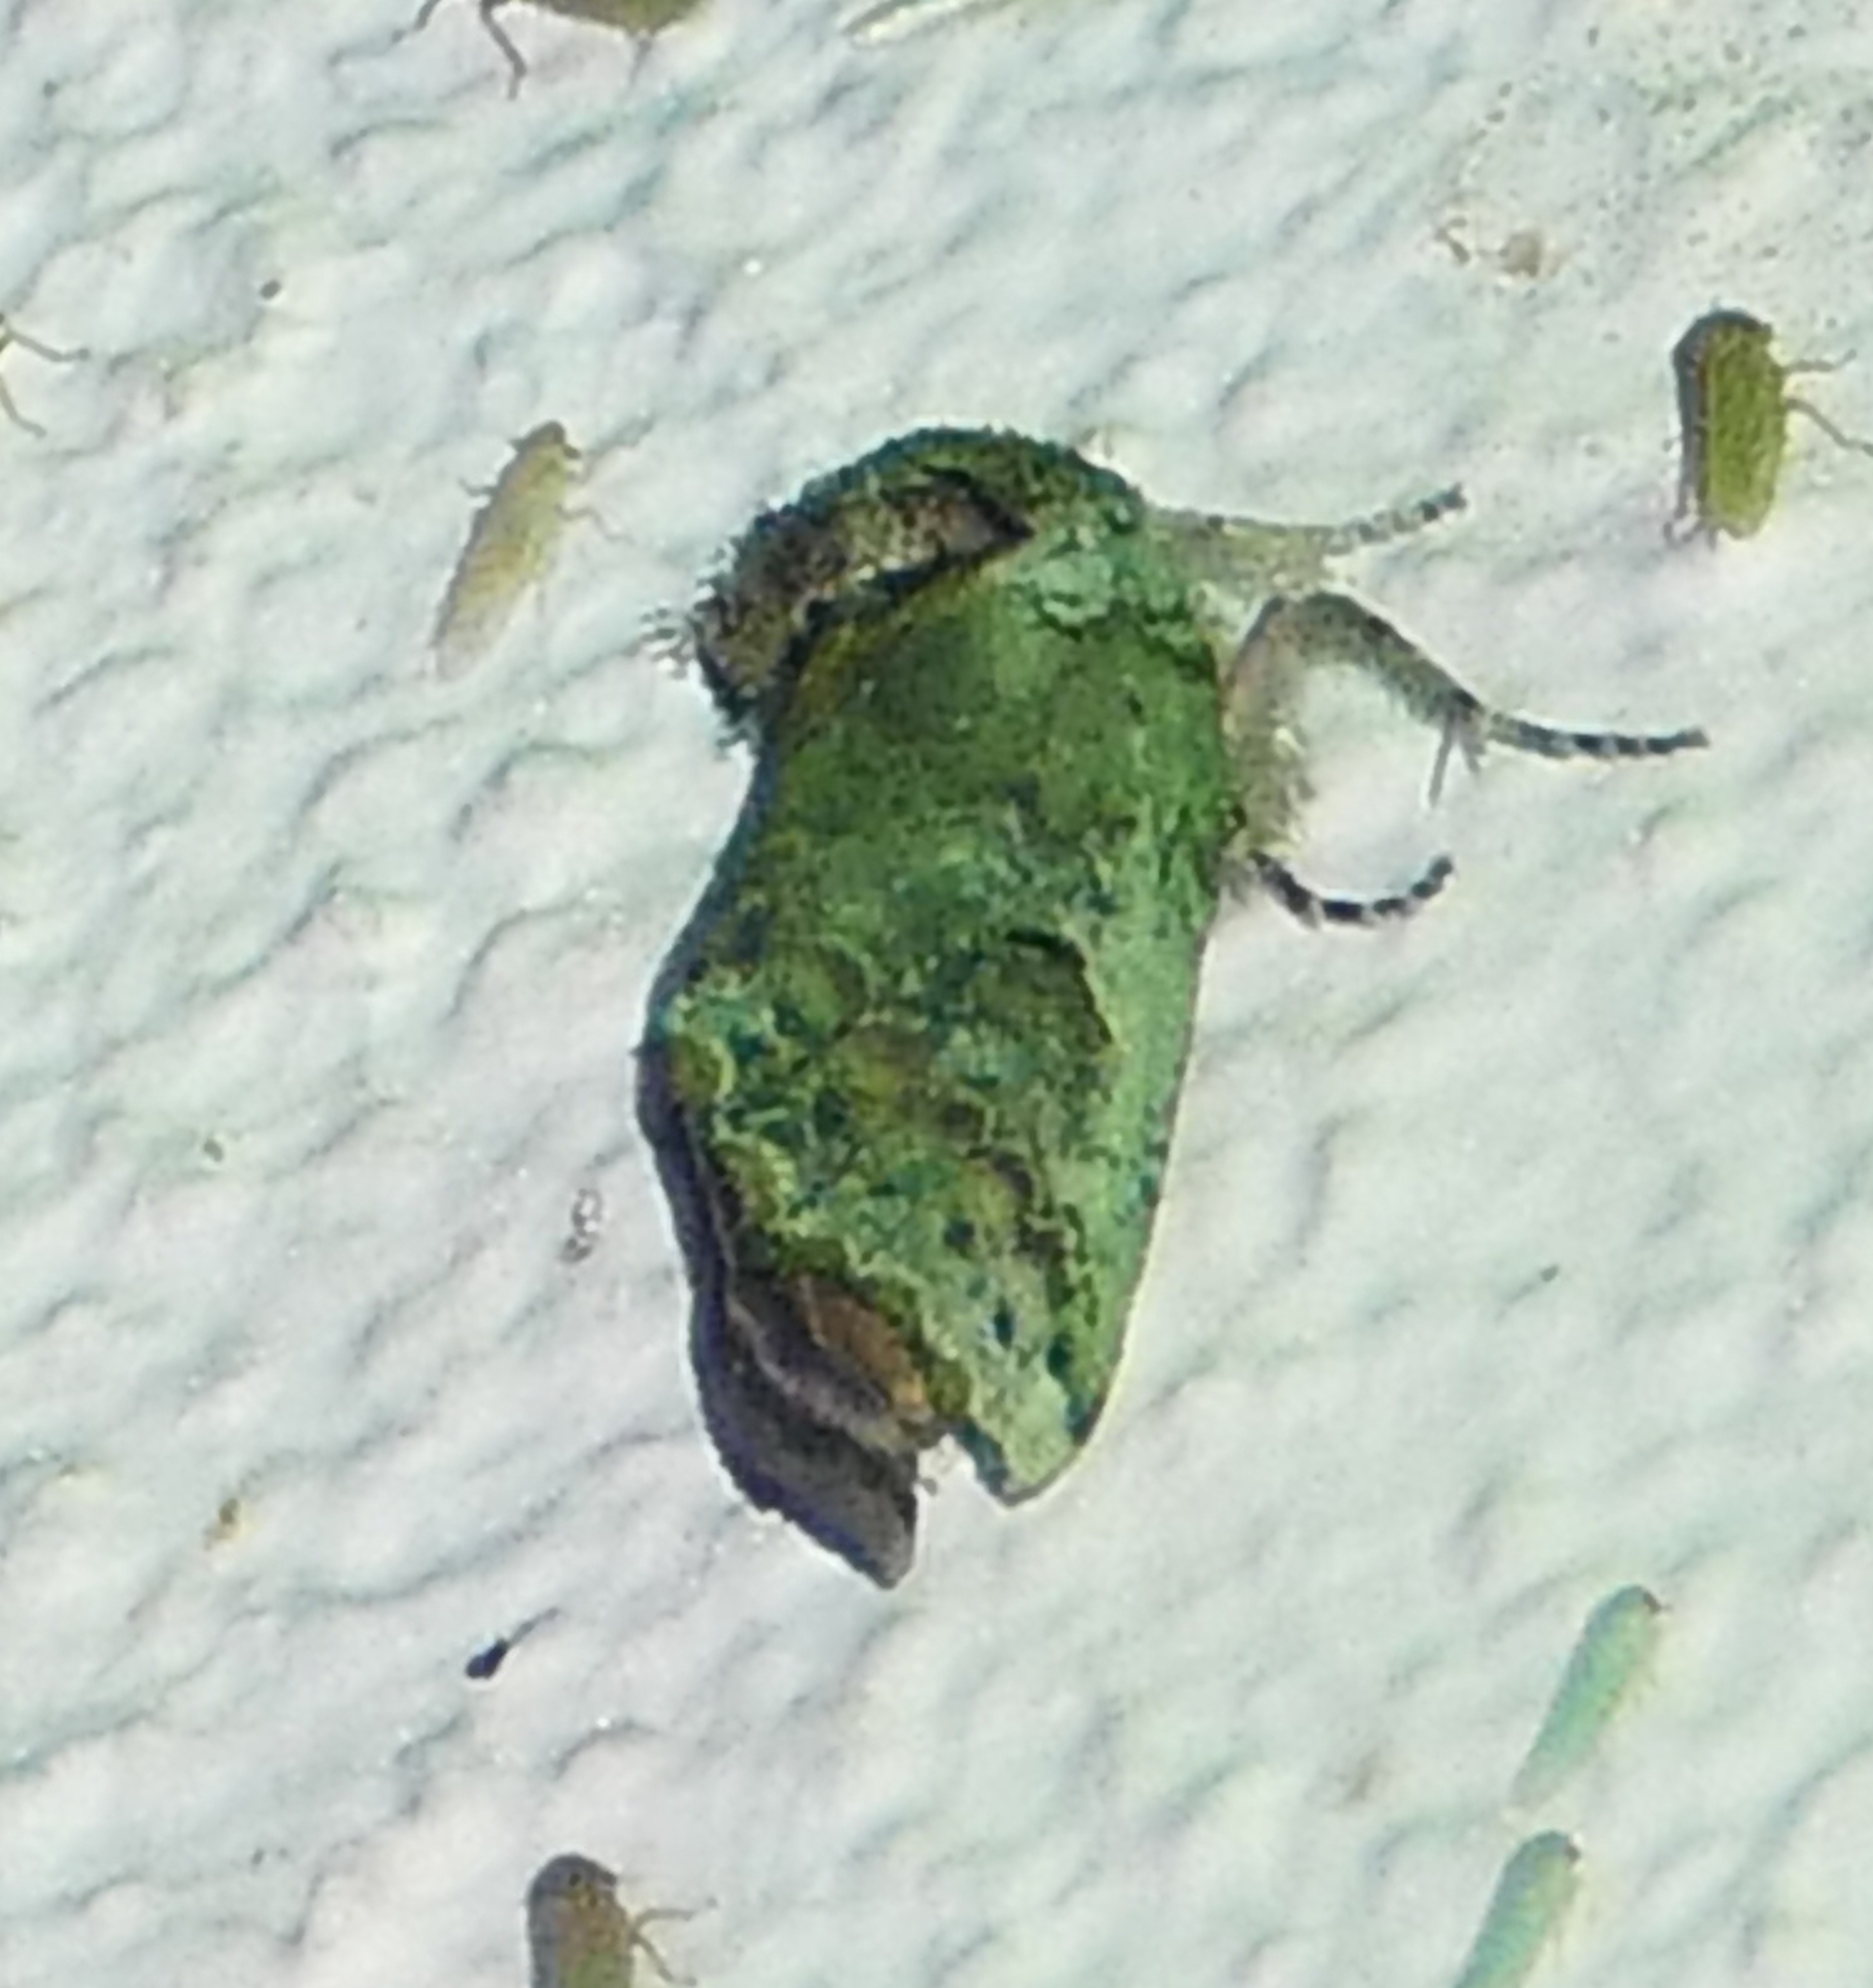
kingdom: Animalia
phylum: Arthropoda
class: Insecta
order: Lepidoptera
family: Notodontidae
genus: Schizura
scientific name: Schizura
